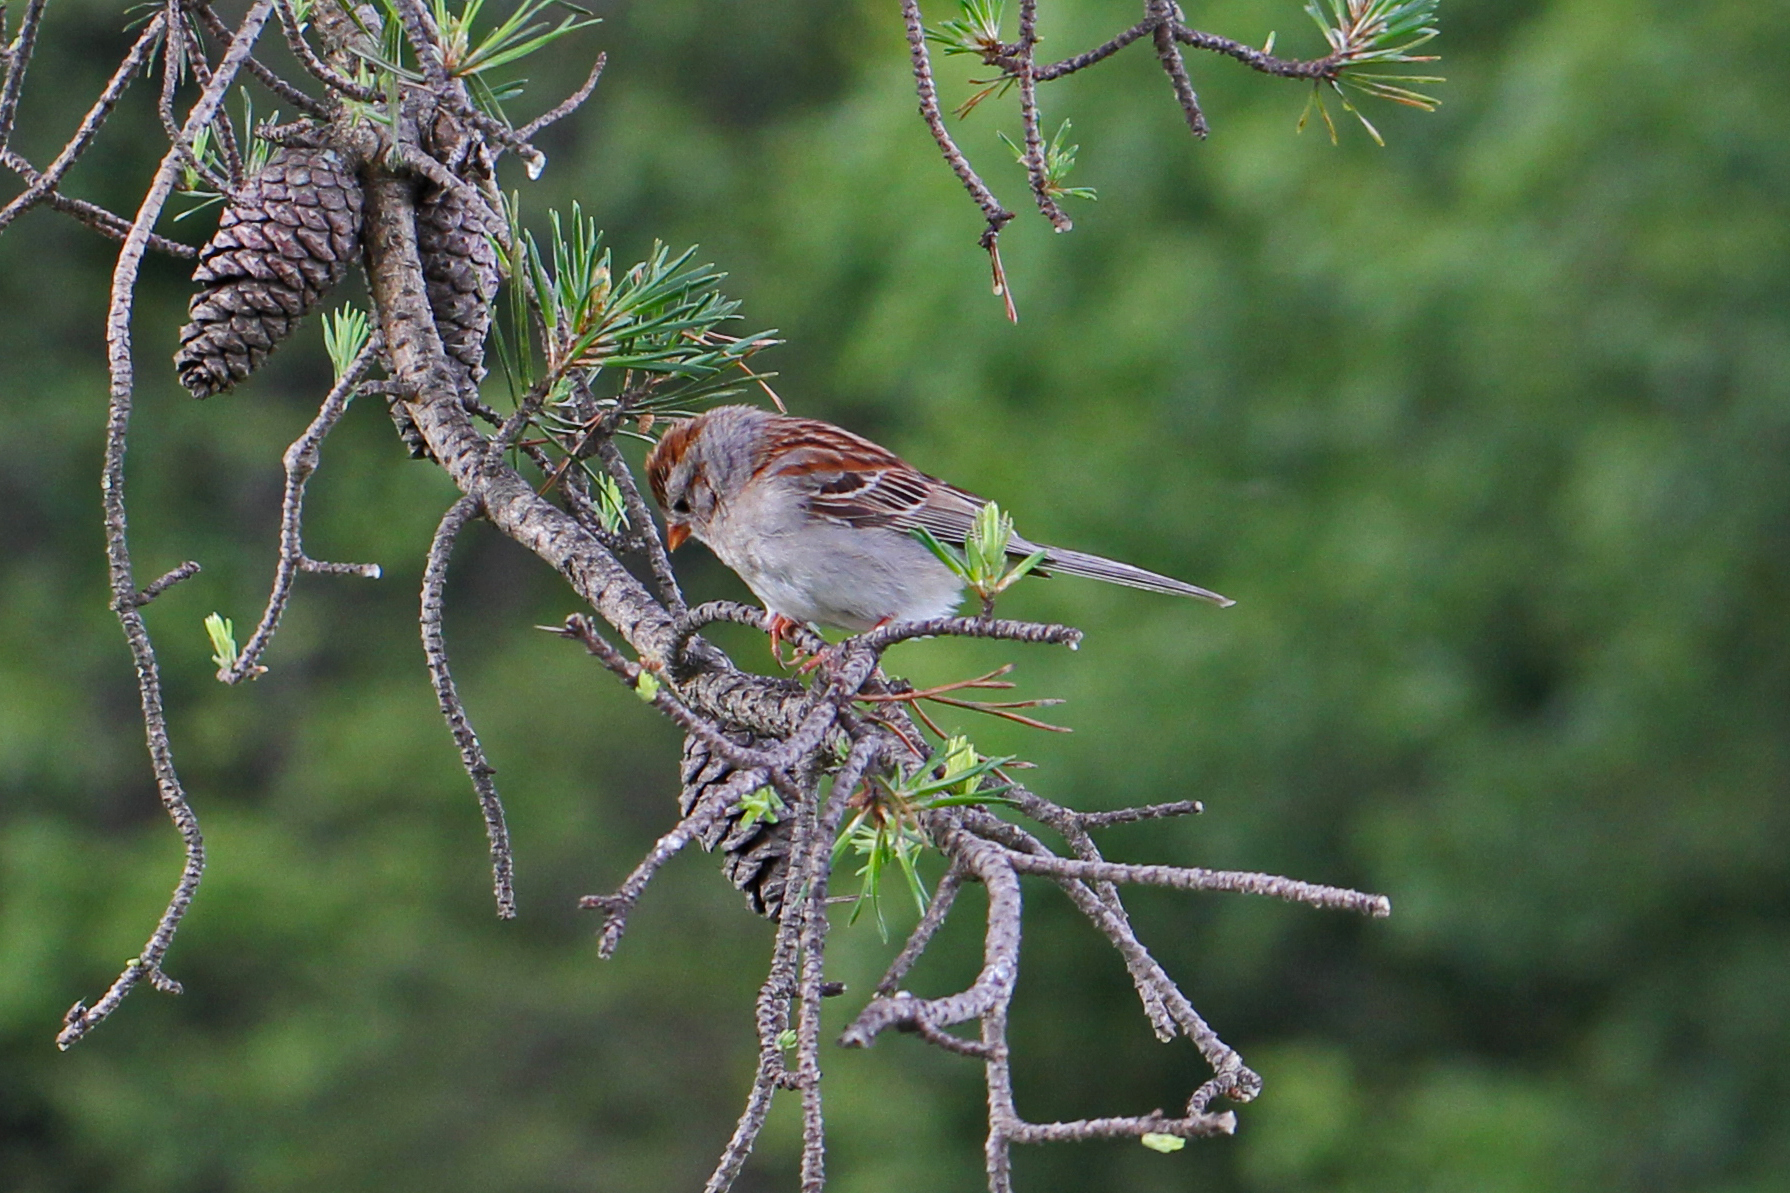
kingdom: Animalia
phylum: Chordata
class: Aves
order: Passeriformes
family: Passerellidae
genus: Spizella
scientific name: Spizella pusilla
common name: Field sparrow
